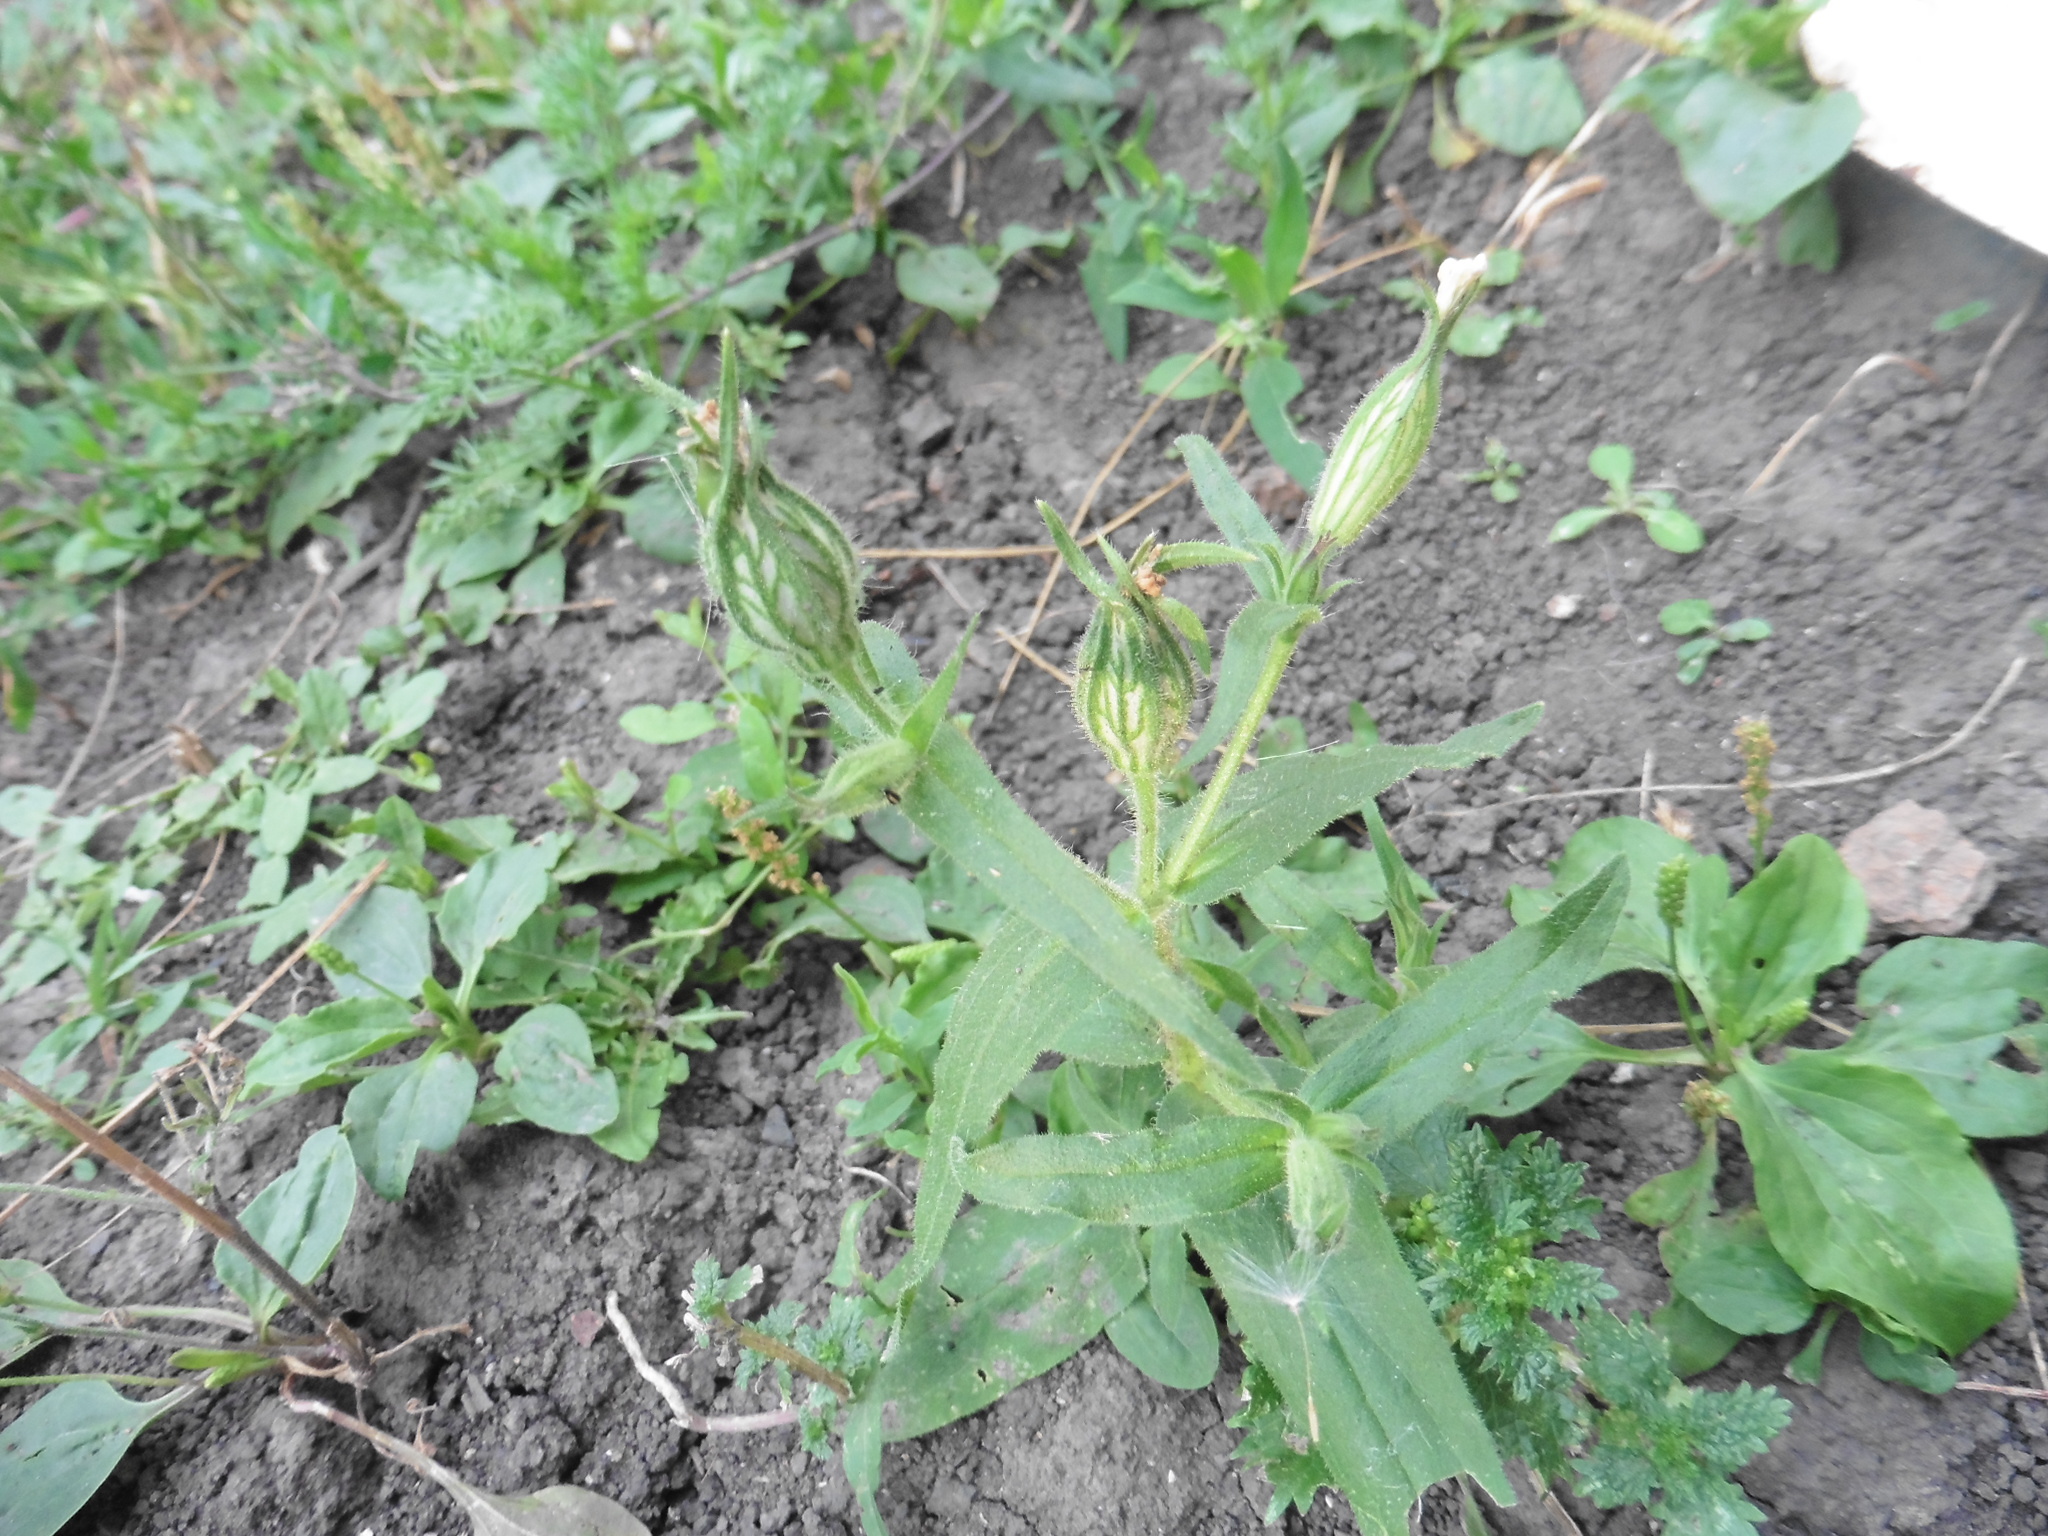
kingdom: Plantae
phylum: Tracheophyta
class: Magnoliopsida
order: Caryophyllales
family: Caryophyllaceae
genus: Silene
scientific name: Silene noctiflora
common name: Night-flowering catchfly
